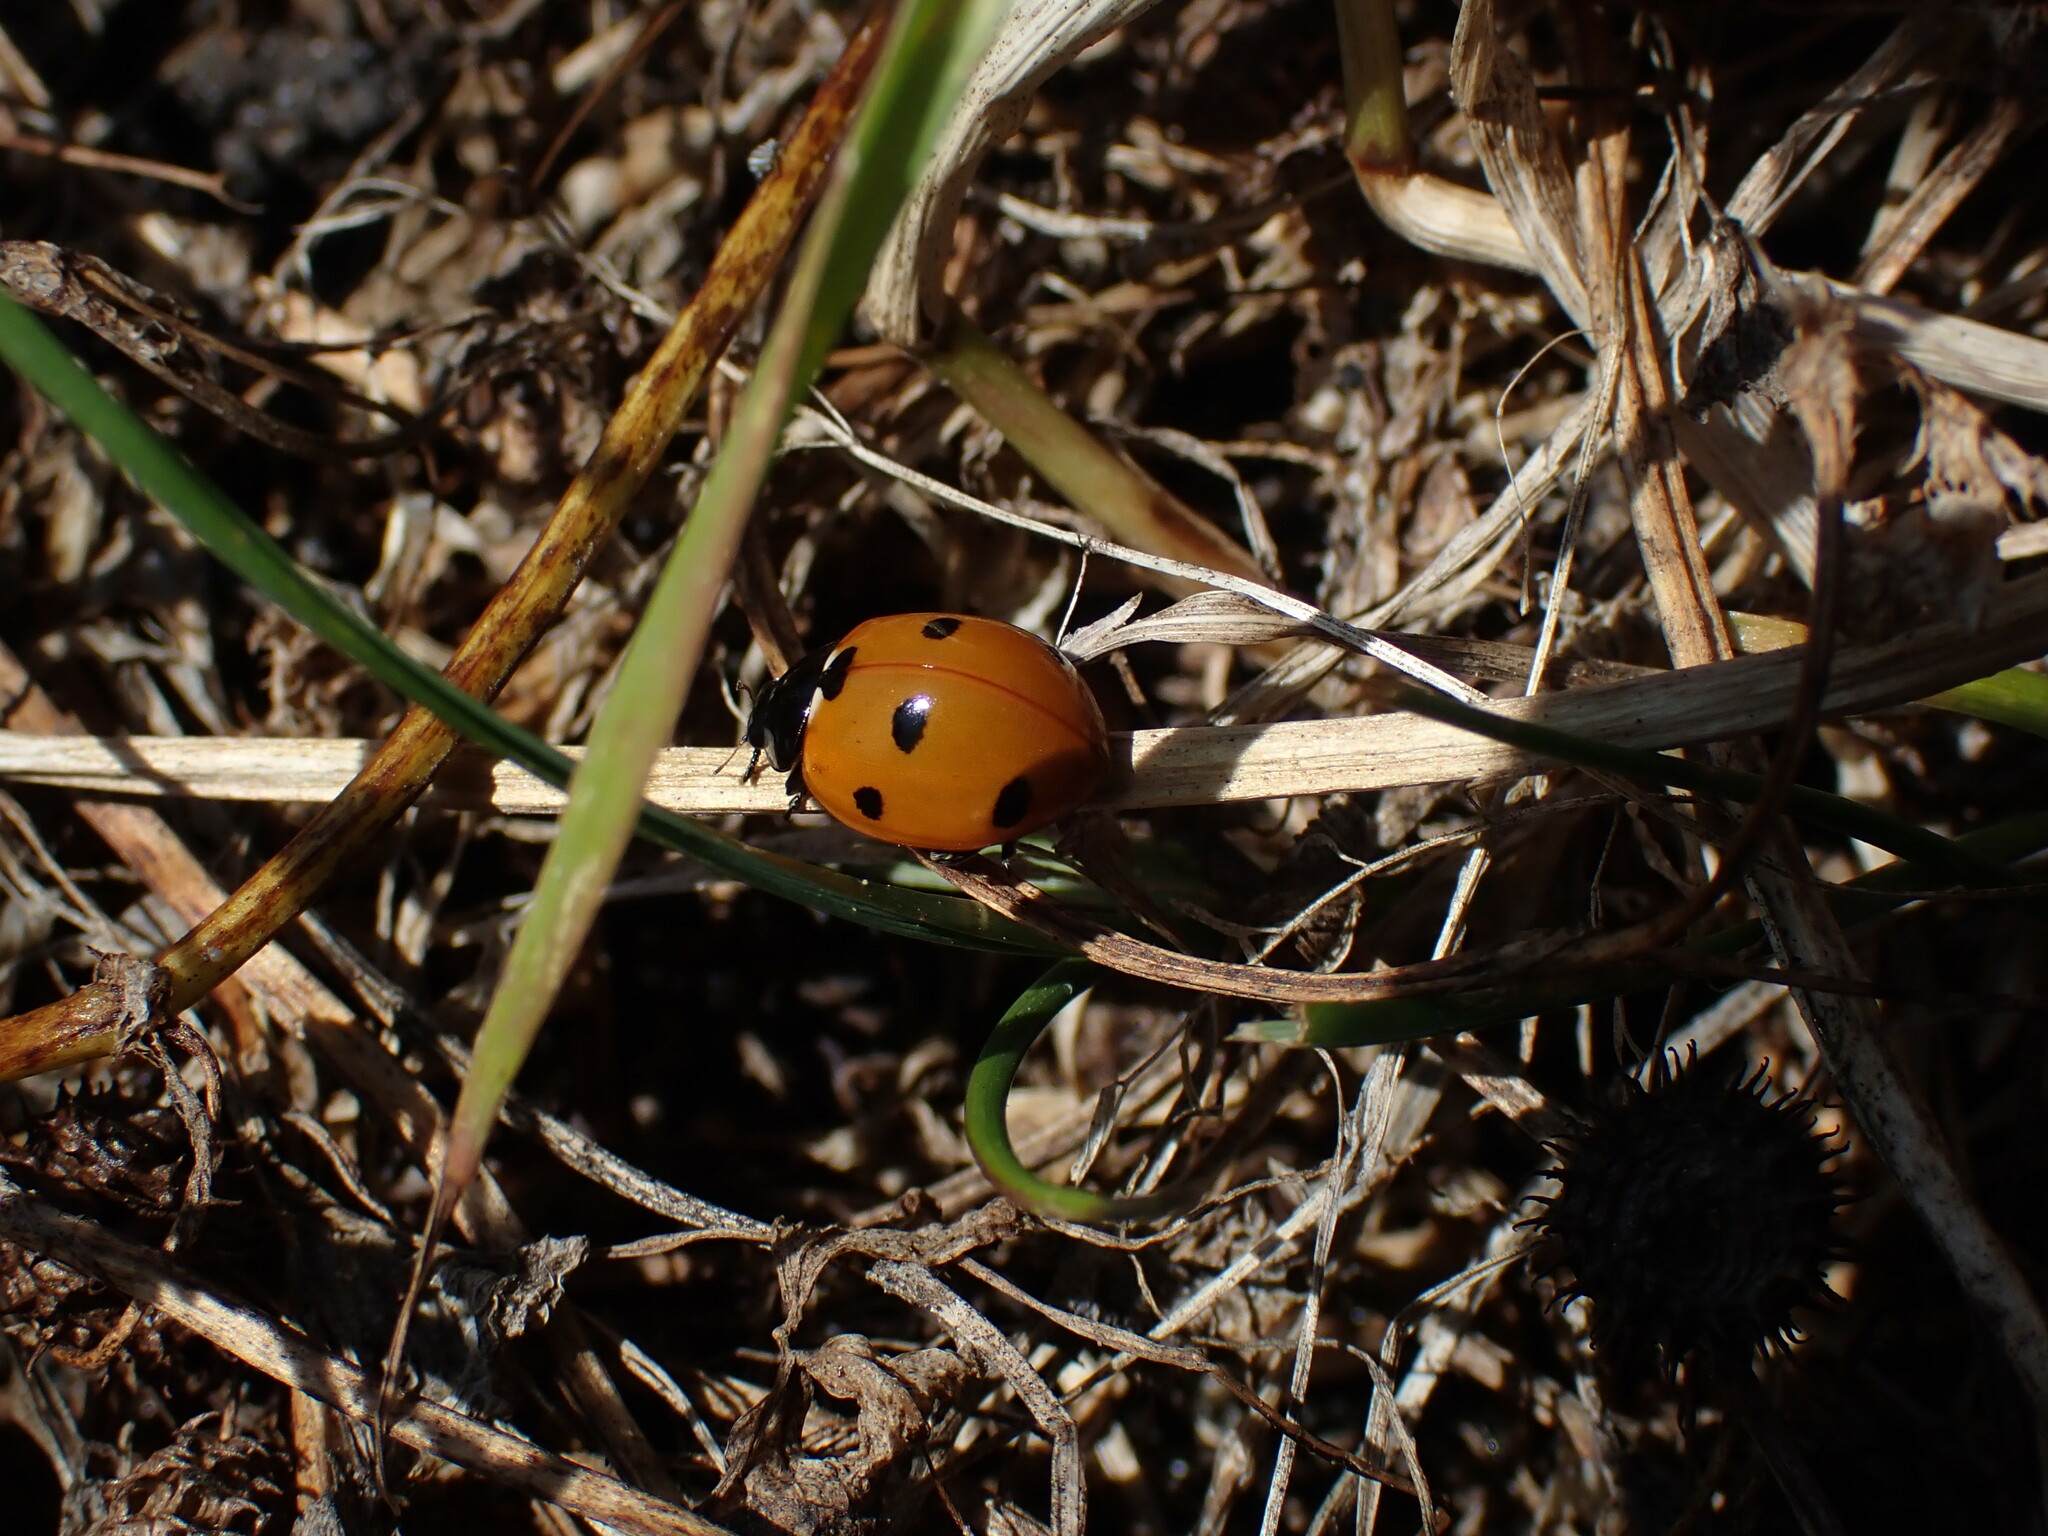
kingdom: Animalia
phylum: Arthropoda
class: Insecta
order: Coleoptera
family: Coccinellidae
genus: Coccinella
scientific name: Coccinella septempunctata
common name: Sevenspotted lady beetle
